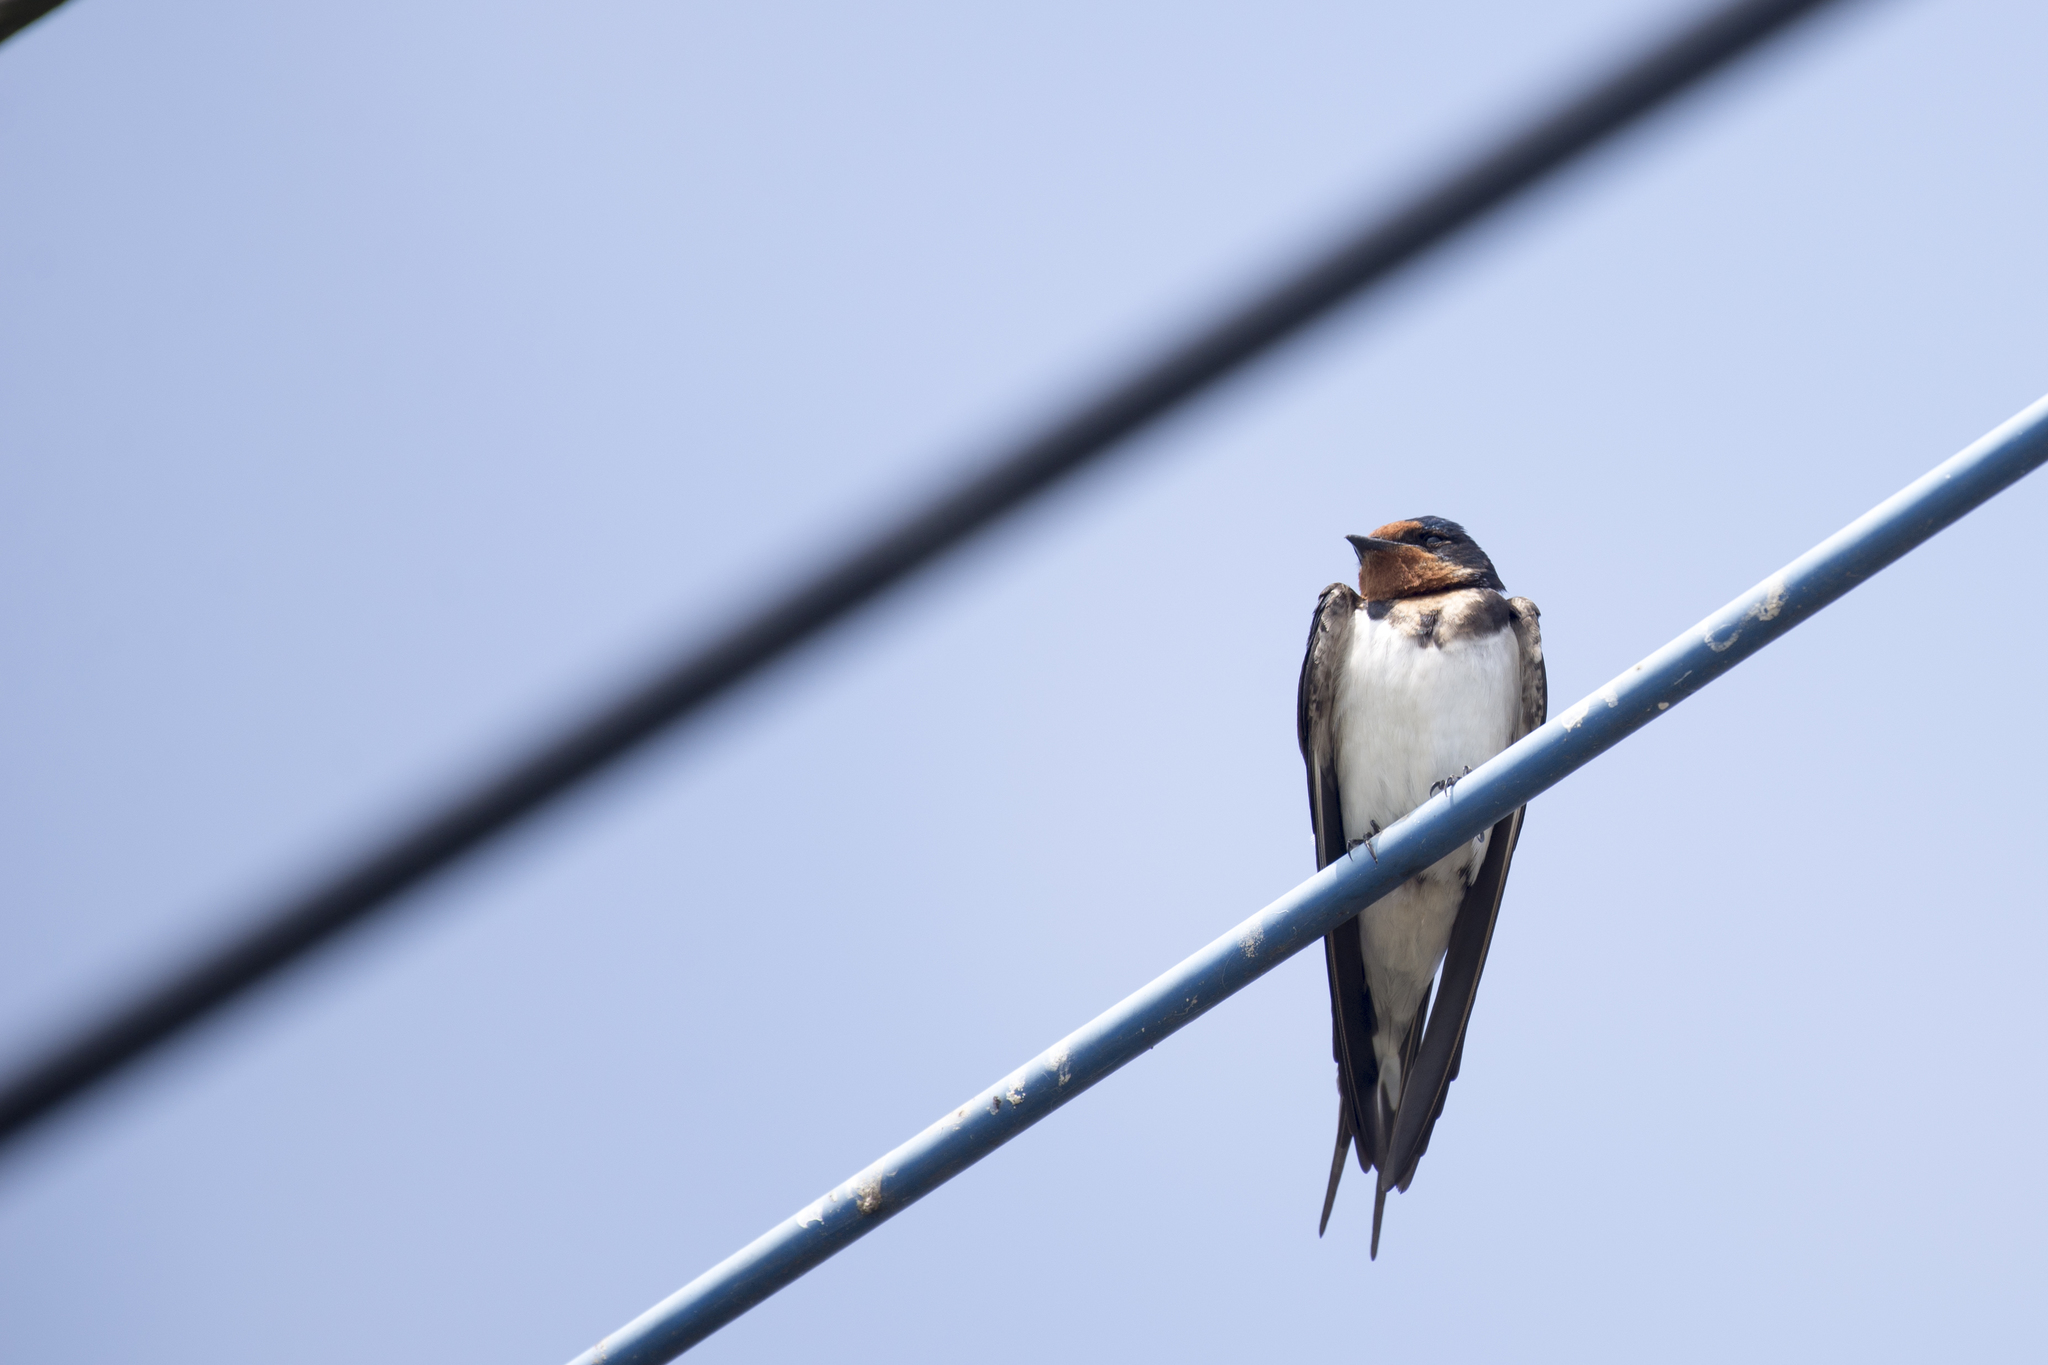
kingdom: Animalia
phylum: Chordata
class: Aves
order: Passeriformes
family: Hirundinidae
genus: Hirundo
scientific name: Hirundo rustica
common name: Barn swallow
